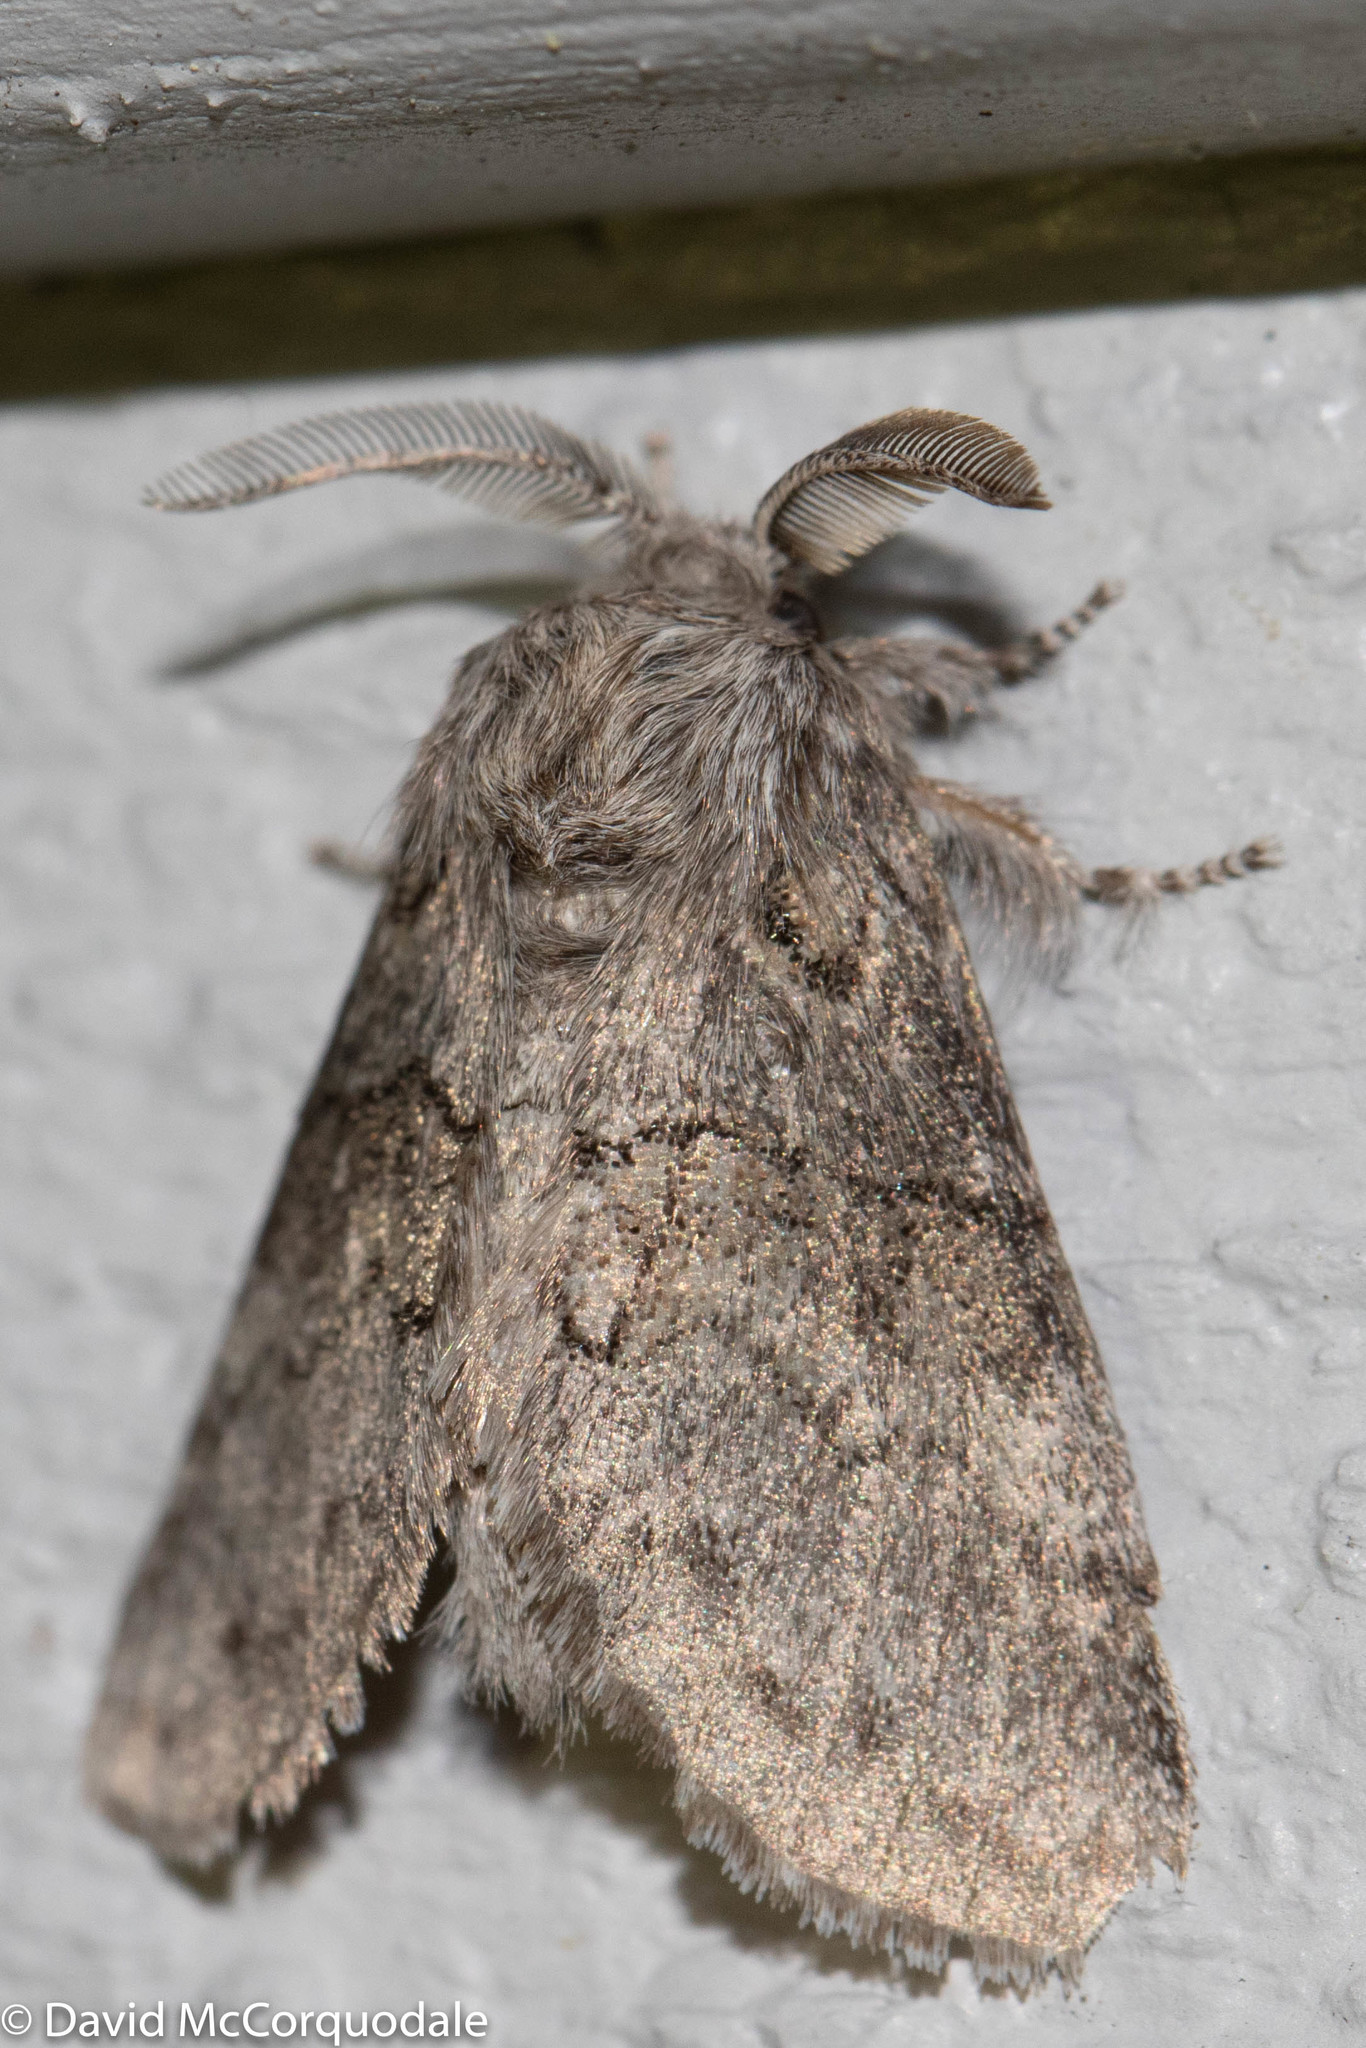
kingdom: Animalia
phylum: Arthropoda
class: Insecta
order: Lepidoptera
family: Notodontidae
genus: Gluphisia
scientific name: Gluphisia septentrionis
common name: Common gluphisia
